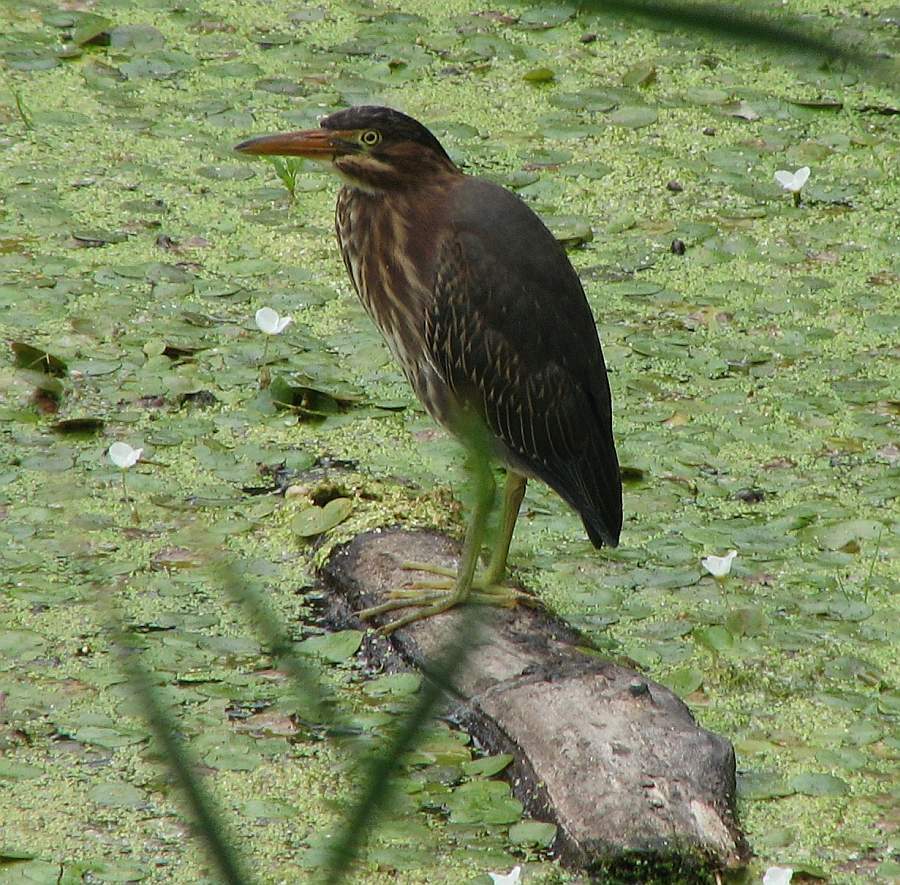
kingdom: Animalia
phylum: Chordata
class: Aves
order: Pelecaniformes
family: Ardeidae
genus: Butorides
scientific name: Butorides virescens
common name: Green heron
